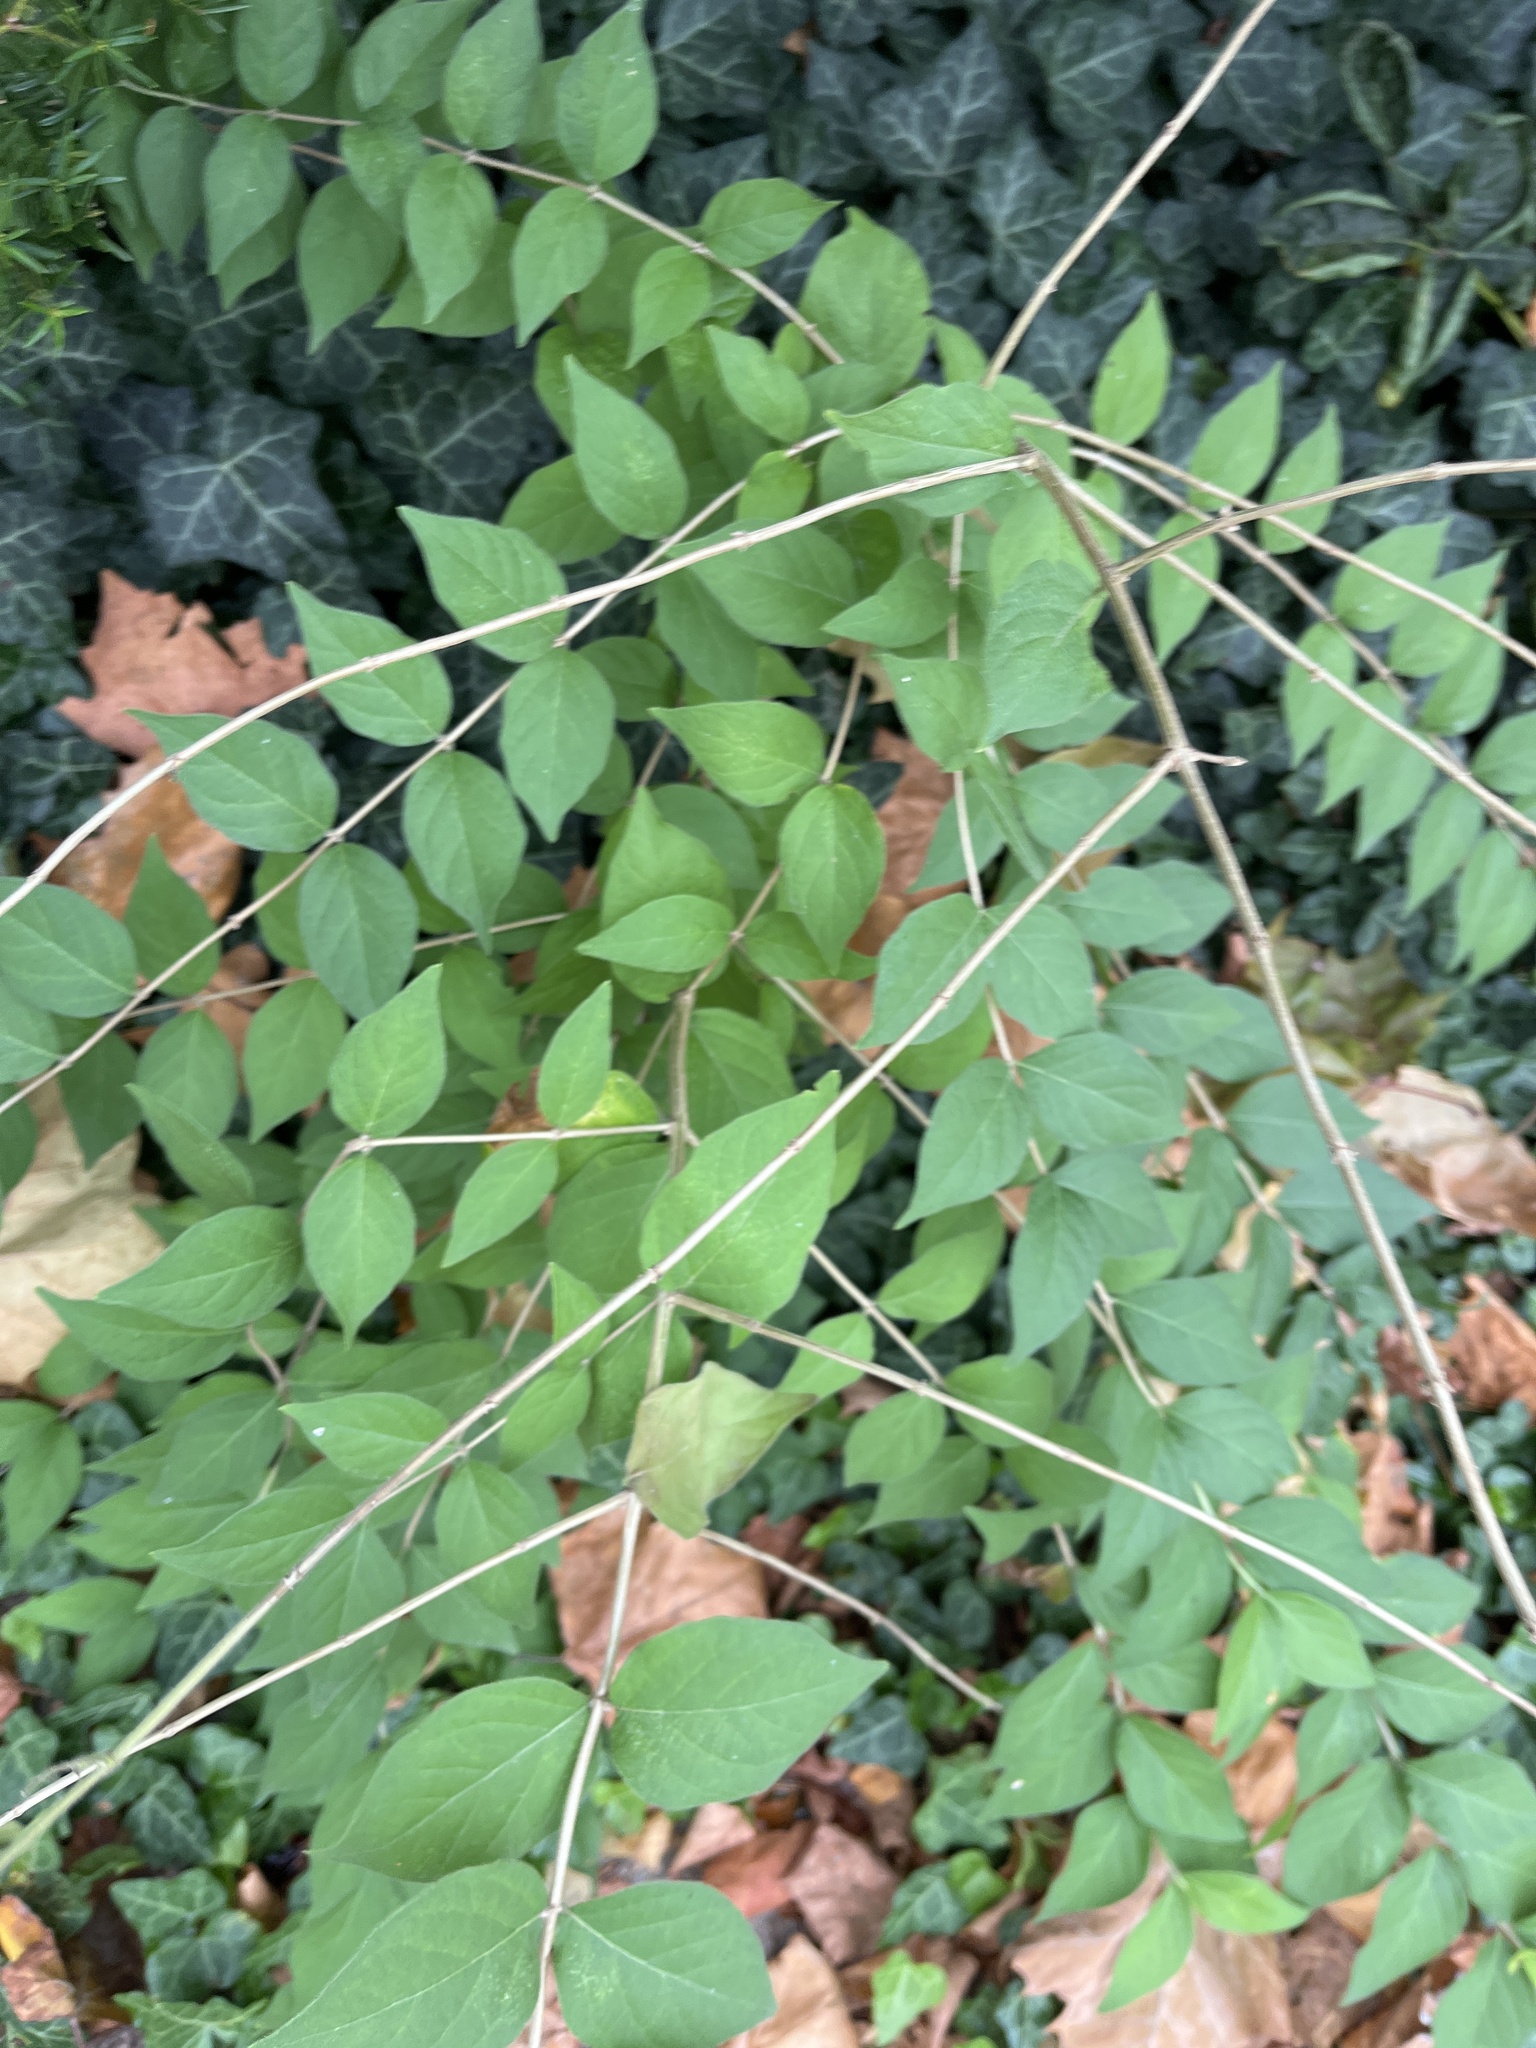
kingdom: Plantae
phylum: Tracheophyta
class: Magnoliopsida
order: Dipsacales
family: Caprifoliaceae
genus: Lonicera
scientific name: Lonicera maackii
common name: Amur honeysuckle
